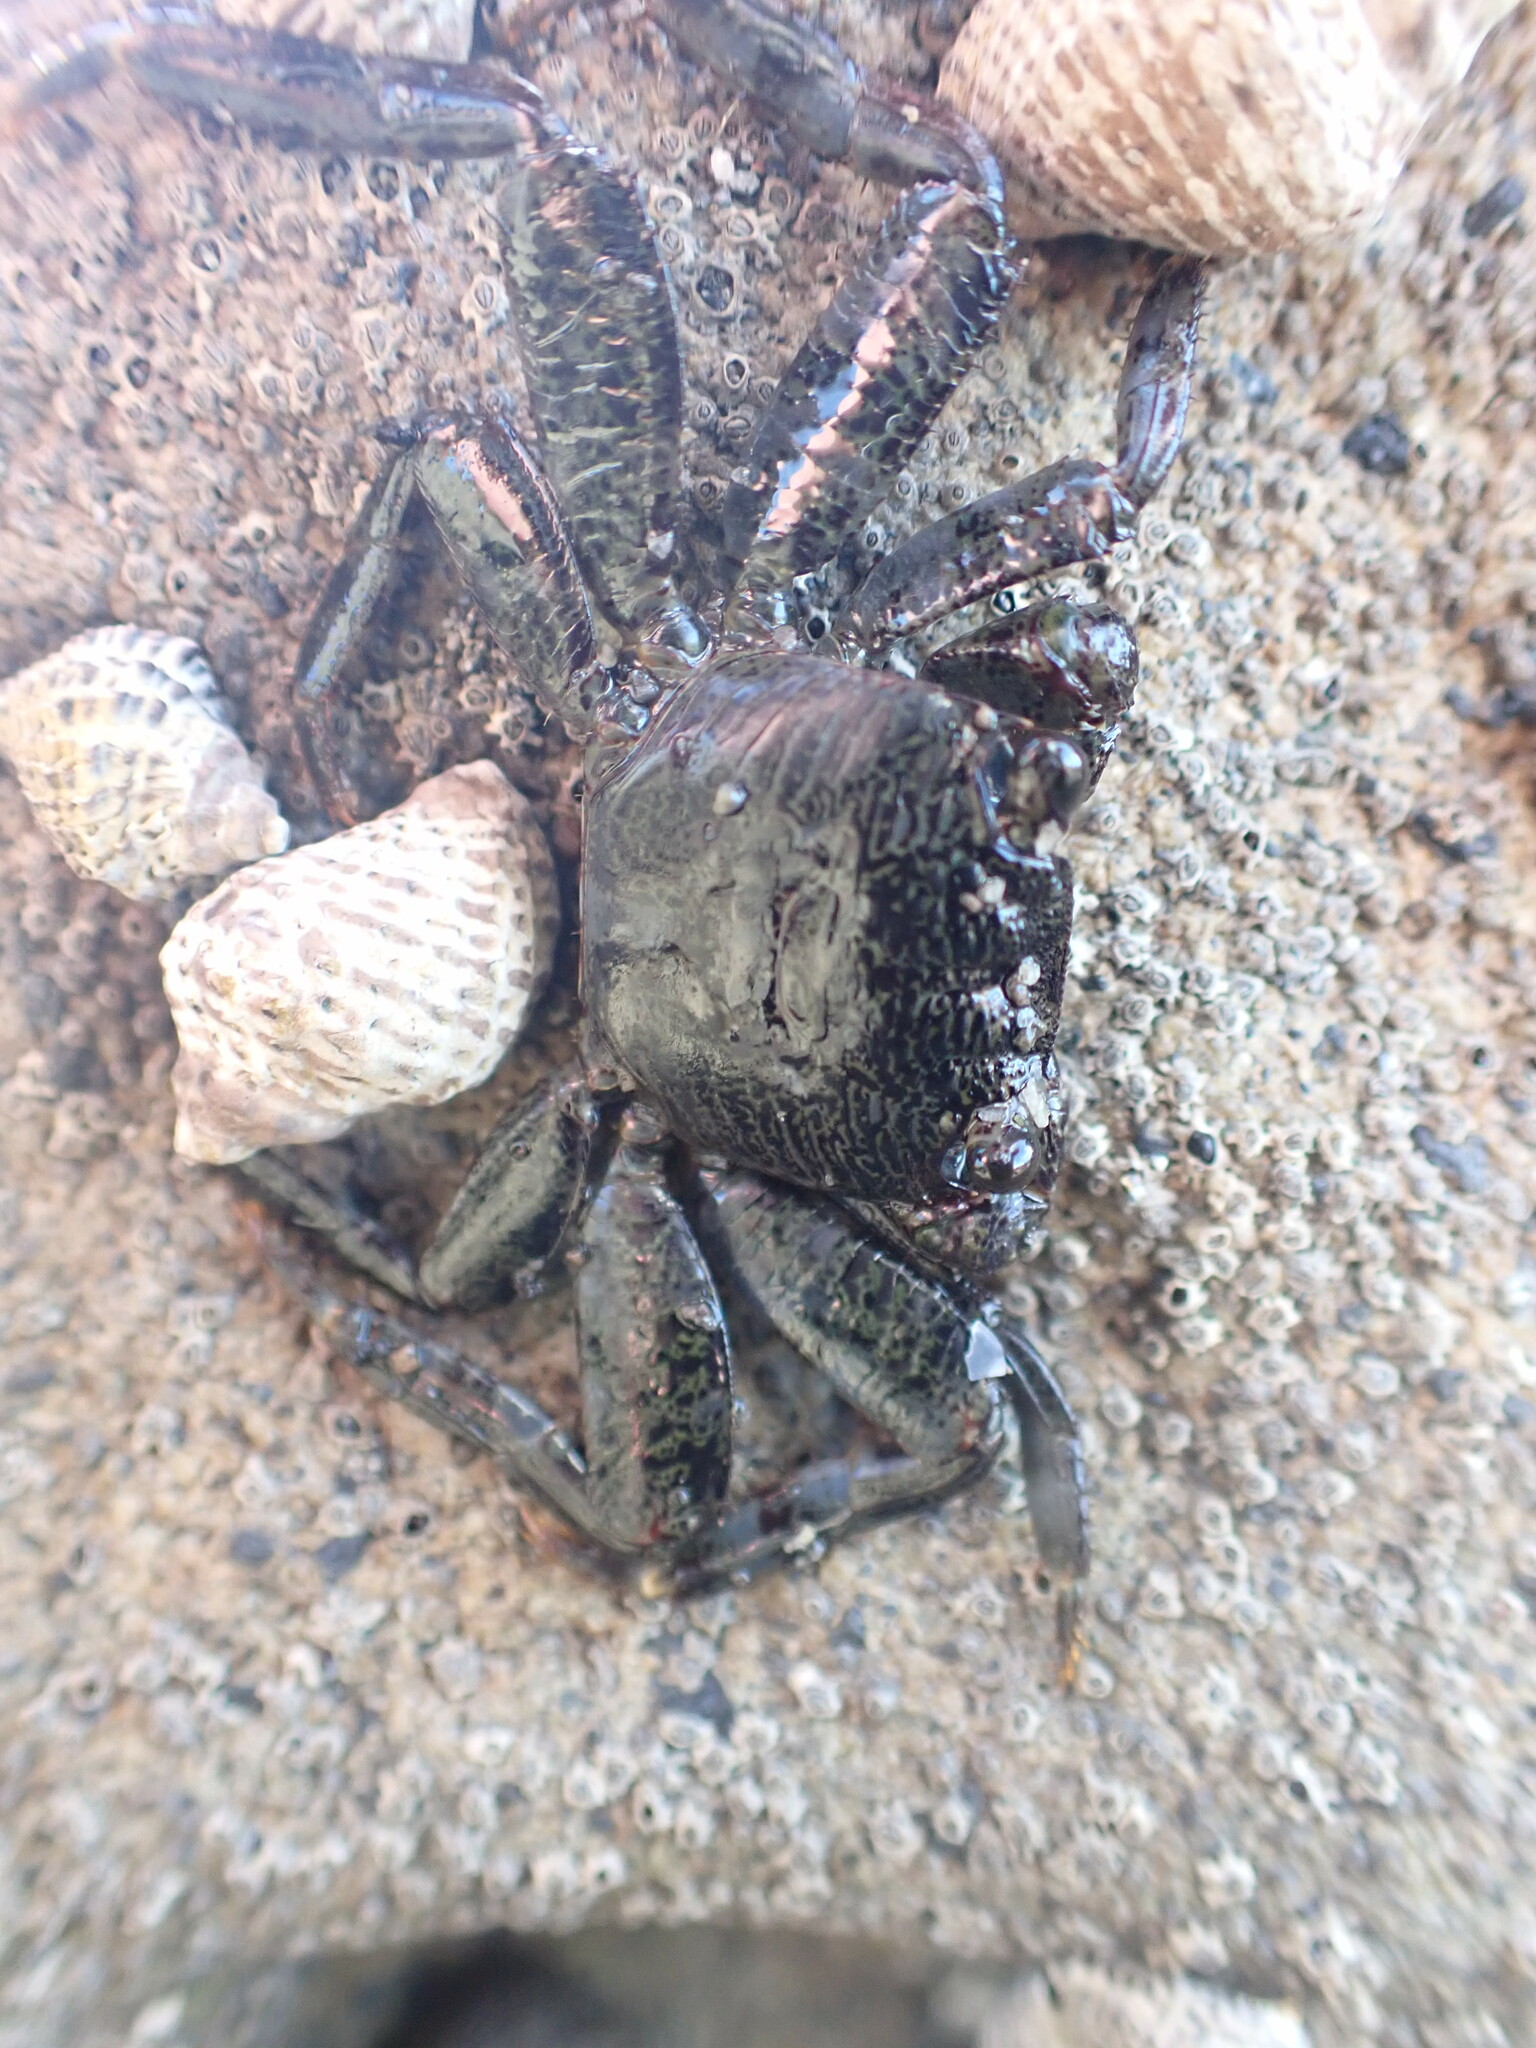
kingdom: Animalia
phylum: Arthropoda
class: Malacostraca
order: Decapoda
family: Grapsidae
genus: Leptograpsus
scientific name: Leptograpsus variegatus
